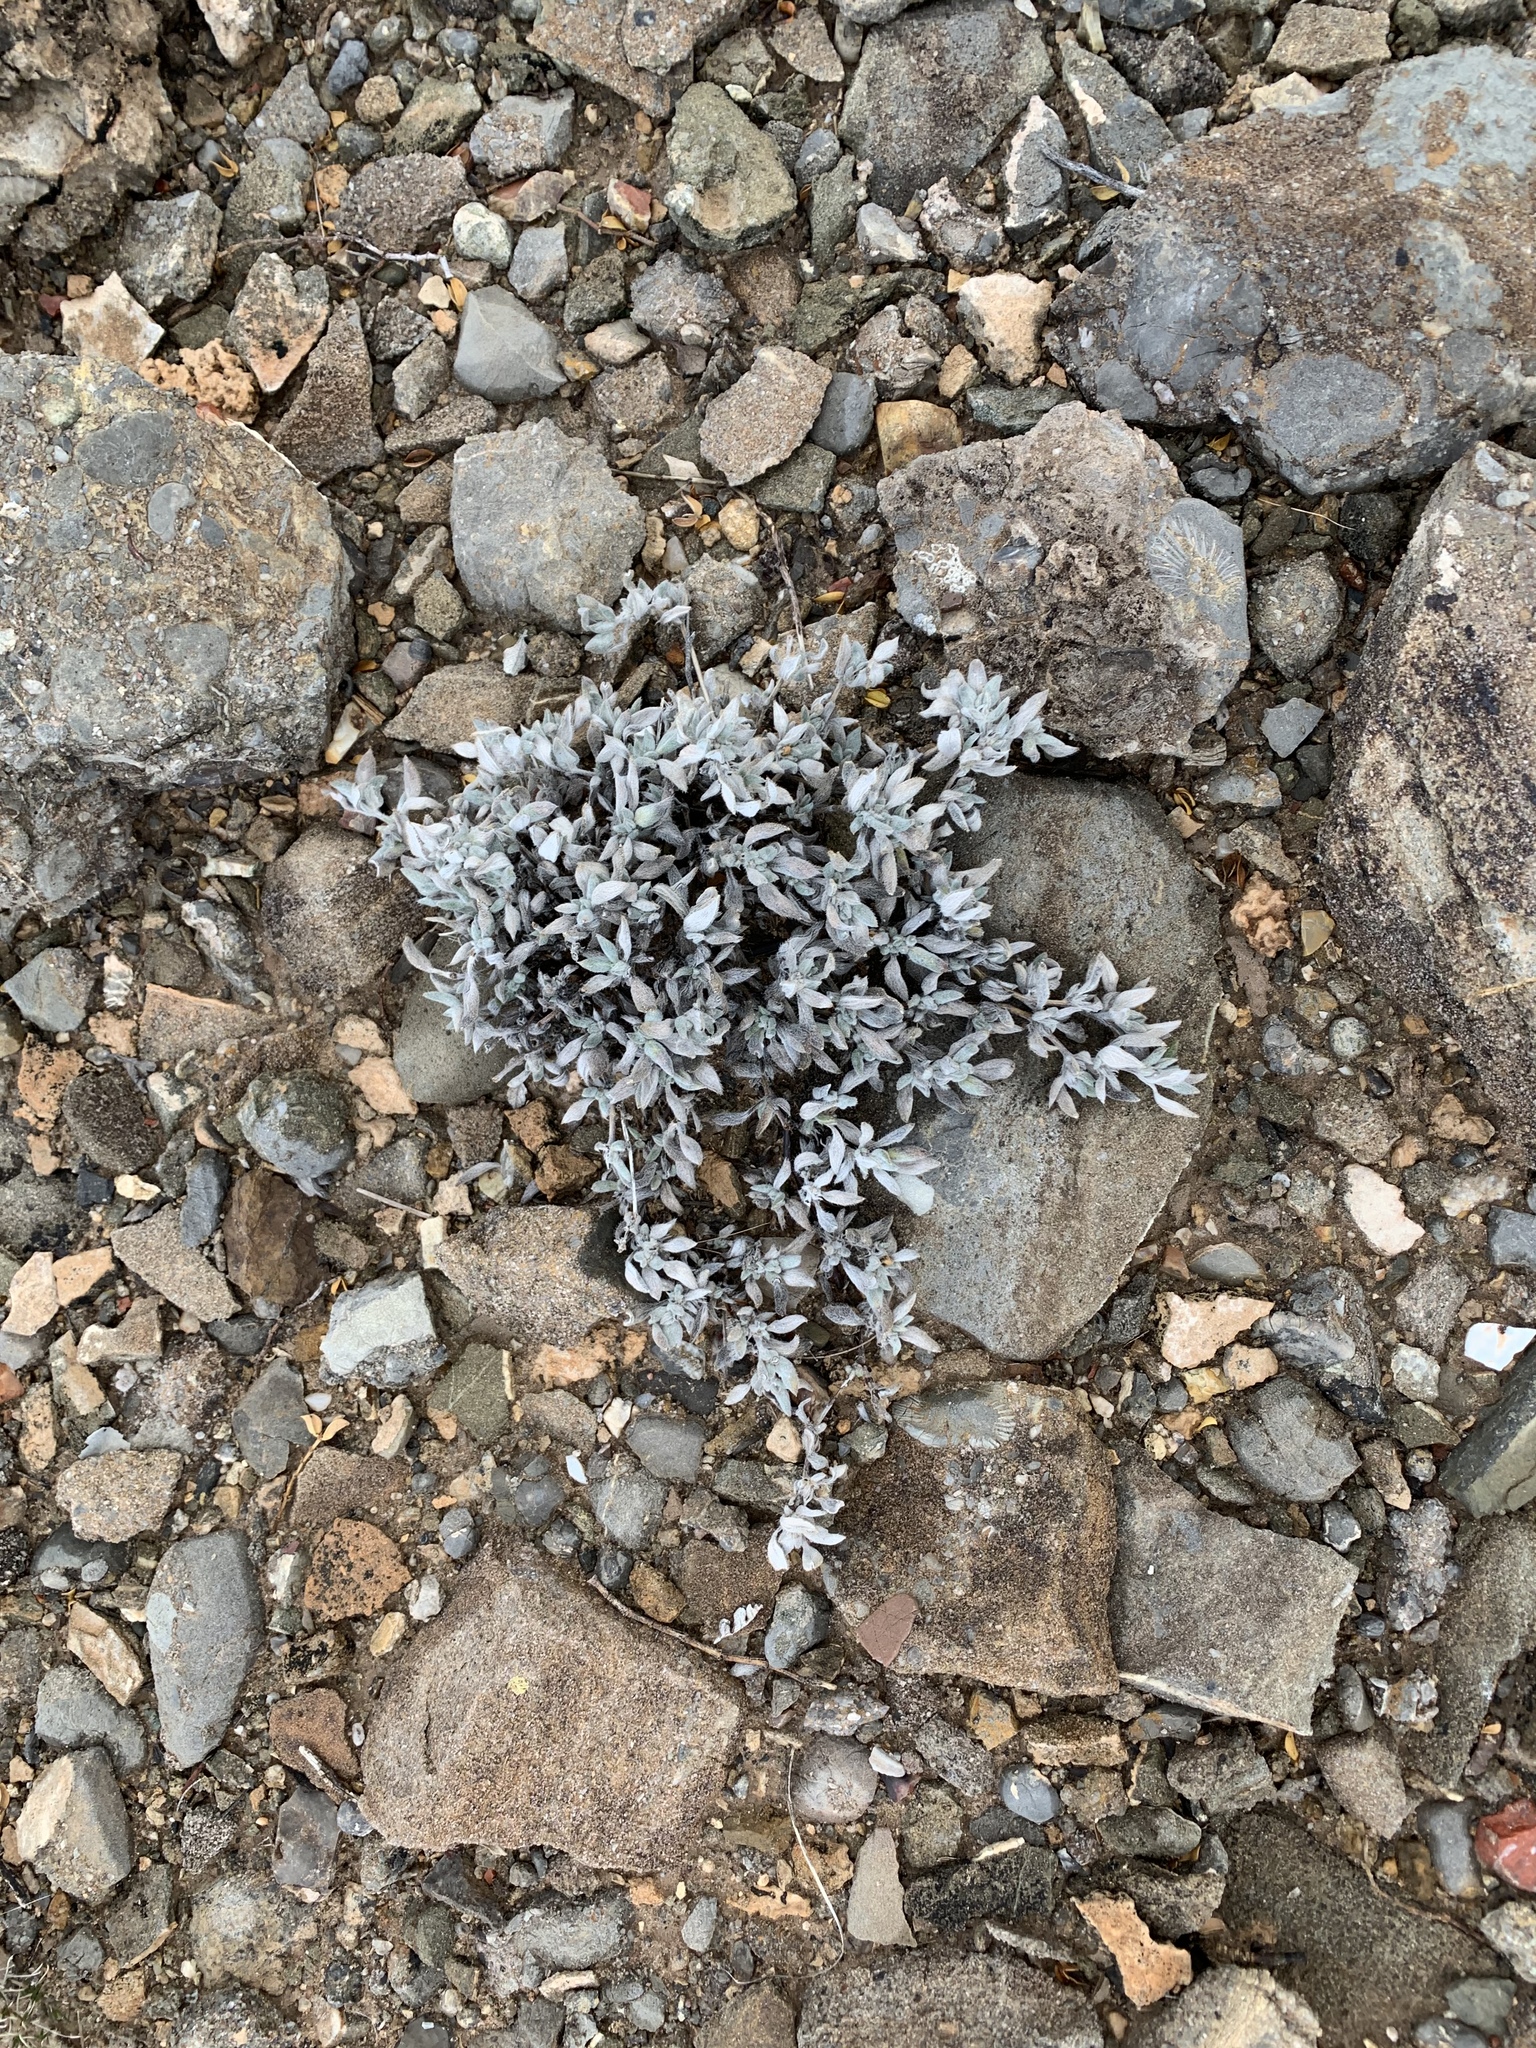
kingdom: Plantae
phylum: Tracheophyta
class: Magnoliopsida
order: Boraginales
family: Ehretiaceae
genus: Tiquilia
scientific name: Tiquilia canescens
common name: Hairy tiquilia
